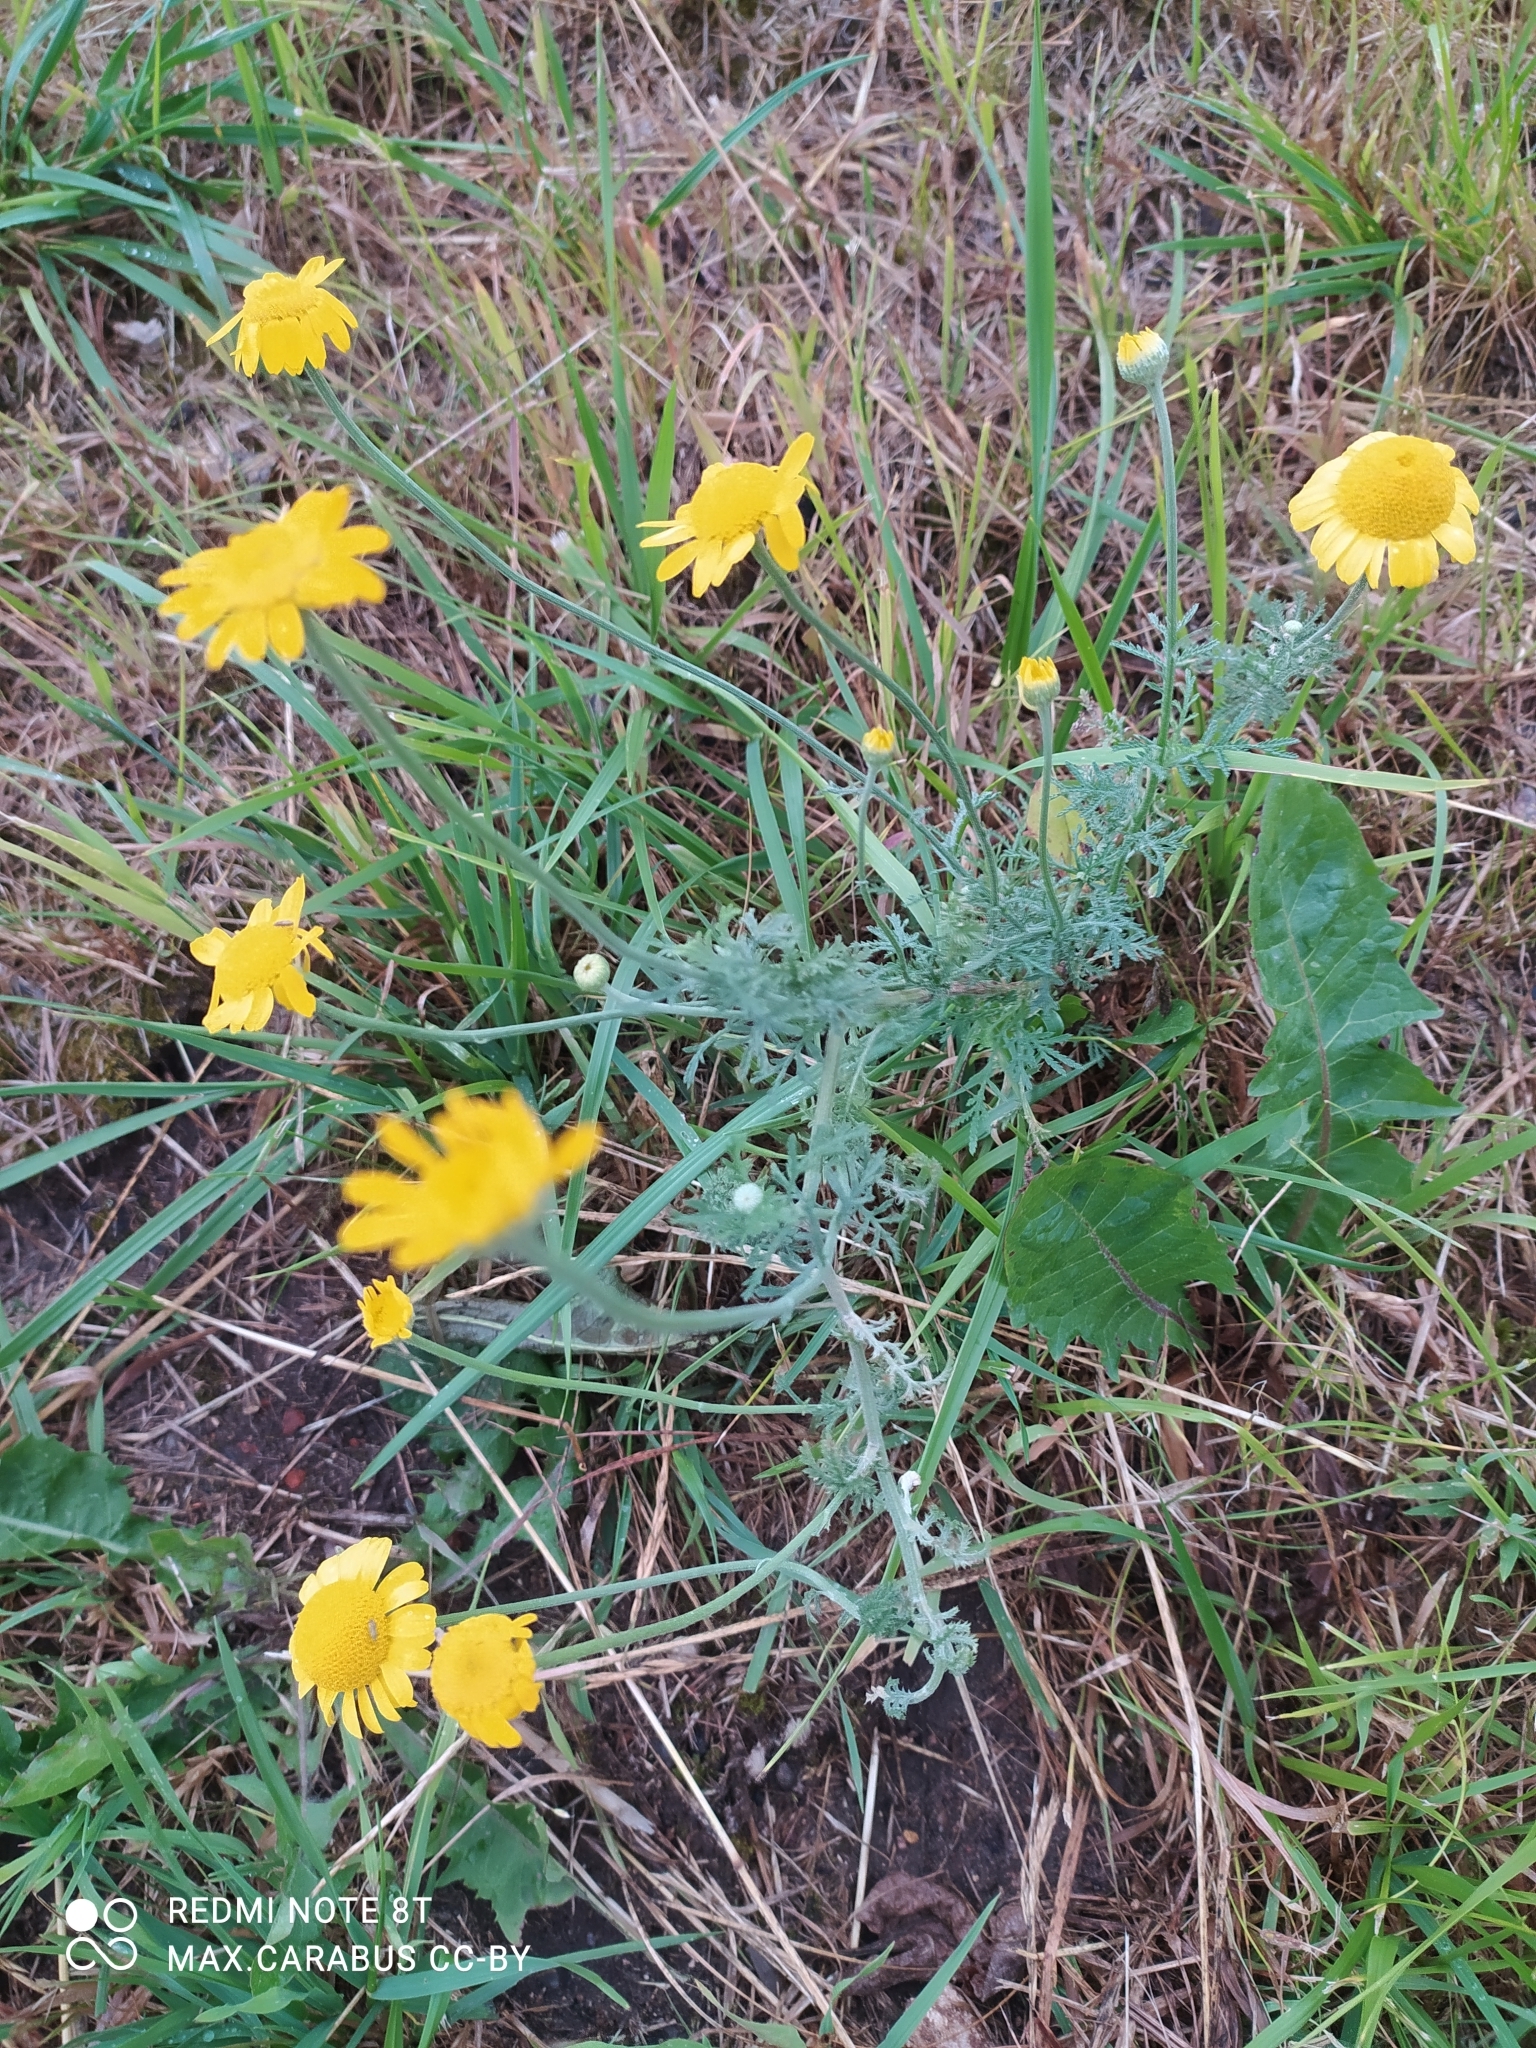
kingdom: Plantae
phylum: Tracheophyta
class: Magnoliopsida
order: Asterales
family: Asteraceae
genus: Cota
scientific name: Cota tinctoria
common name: Golden chamomile
